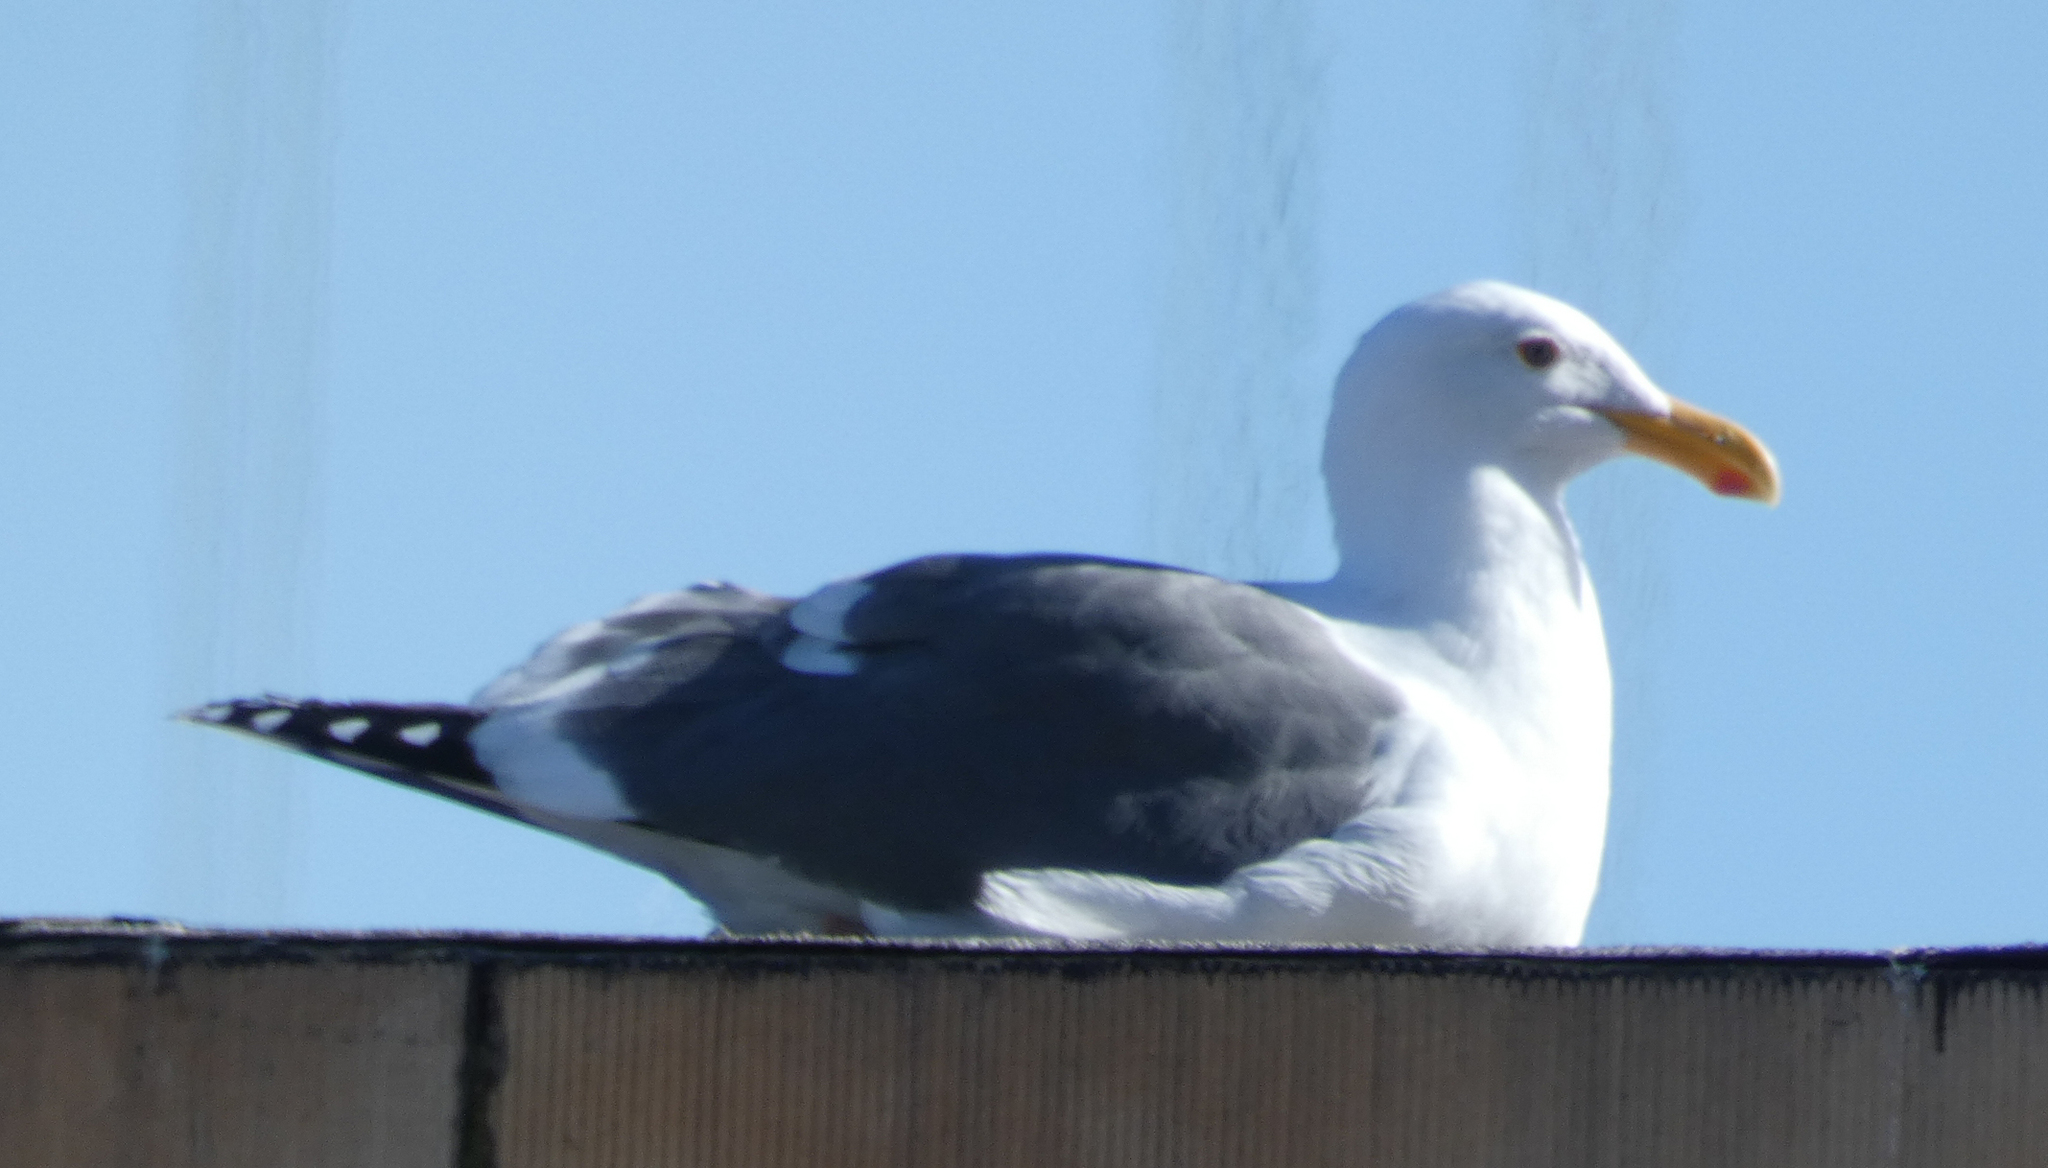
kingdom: Animalia
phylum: Chordata
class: Aves
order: Charadriiformes
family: Laridae
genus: Larus
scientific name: Larus occidentalis
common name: Western gull
